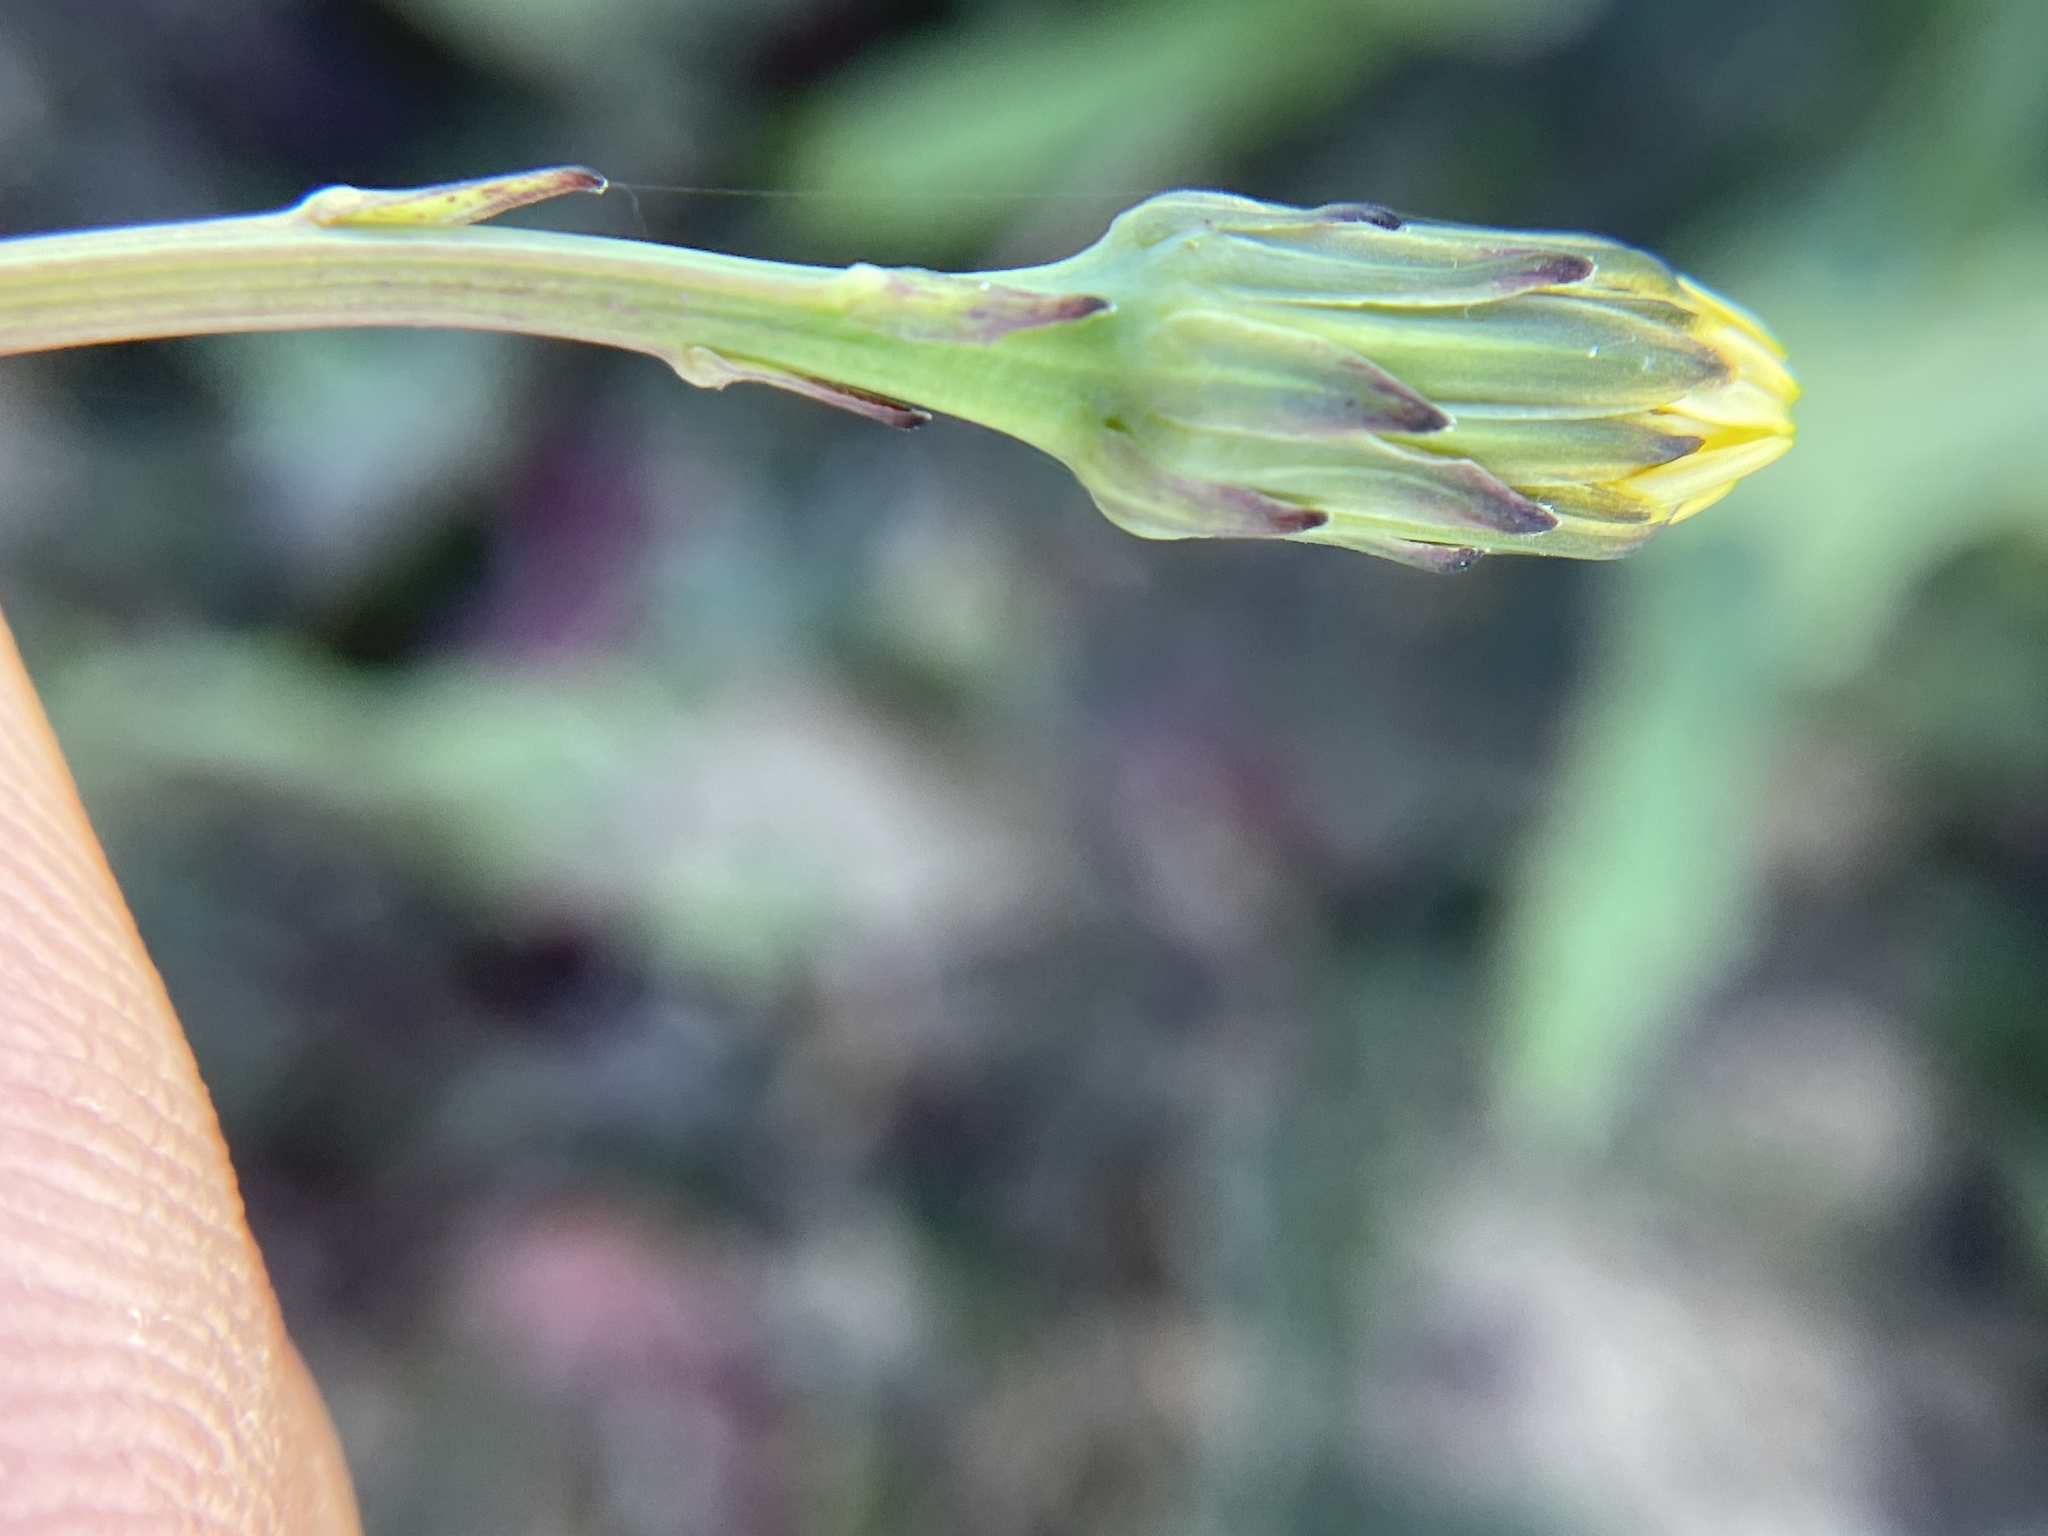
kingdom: Plantae
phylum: Tracheophyta
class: Magnoliopsida
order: Asterales
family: Asteraceae
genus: Hypochaeris
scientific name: Hypochaeris glabra
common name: Smooth catsear
